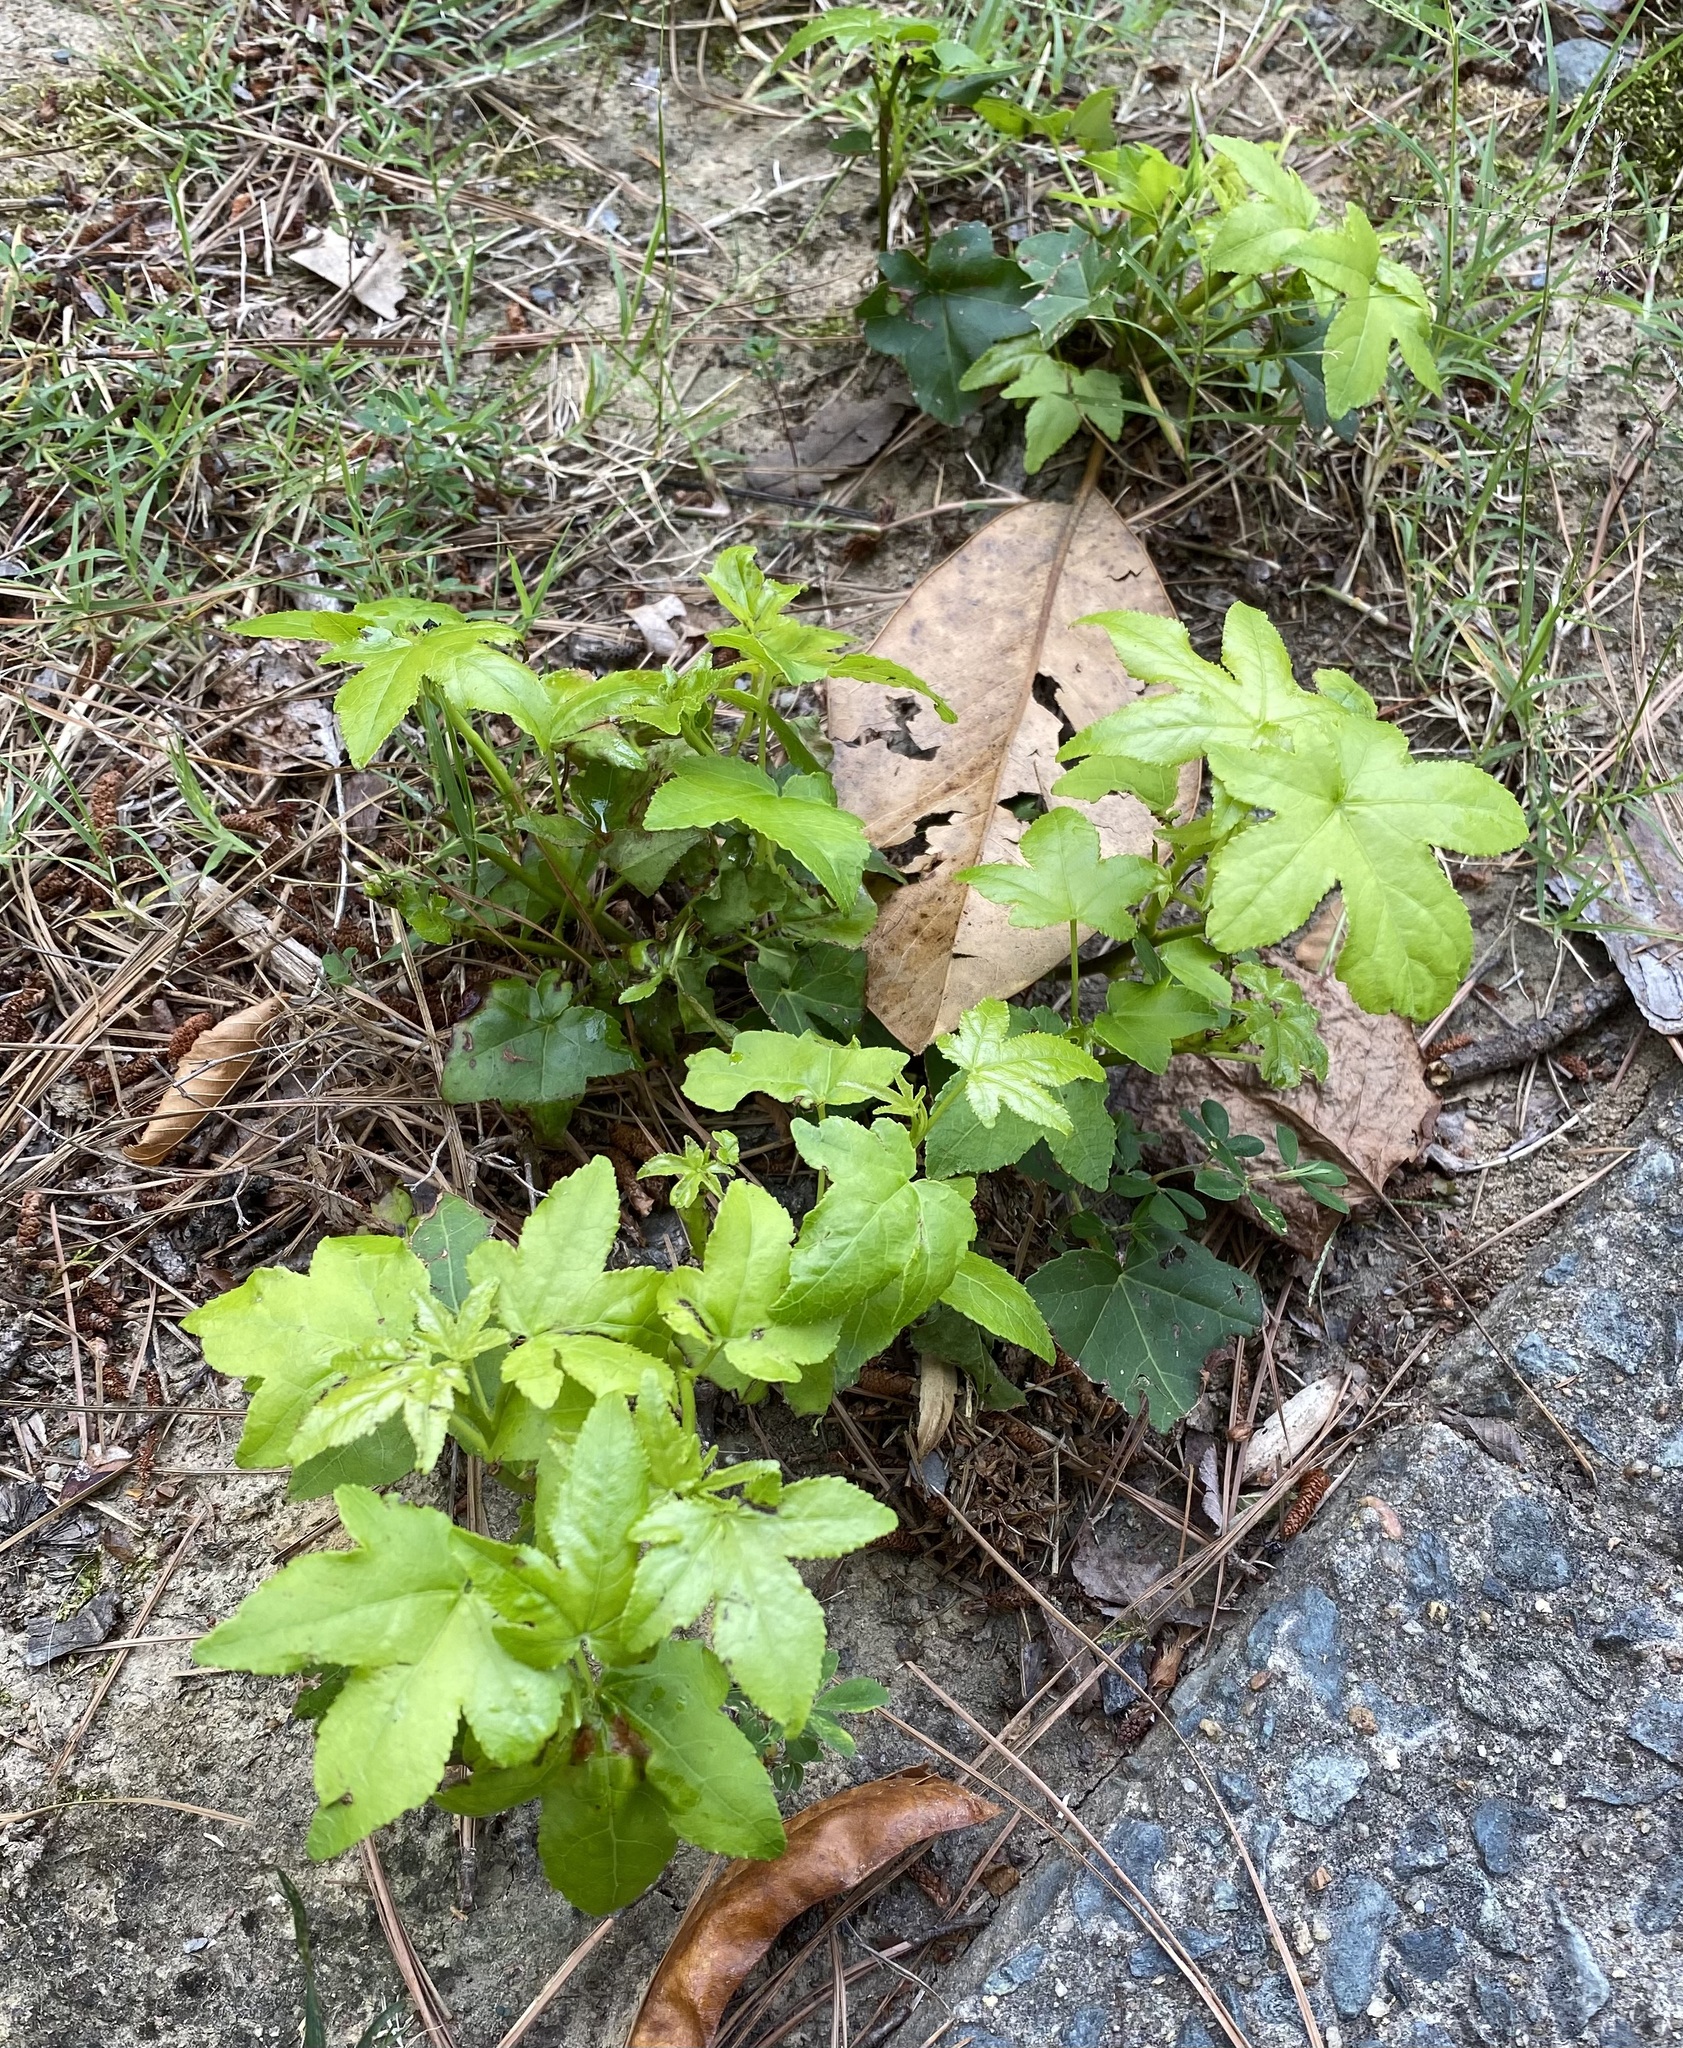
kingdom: Plantae
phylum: Tracheophyta
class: Magnoliopsida
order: Saxifragales
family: Altingiaceae
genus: Liquidambar
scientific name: Liquidambar styraciflua
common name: Sweet gum
